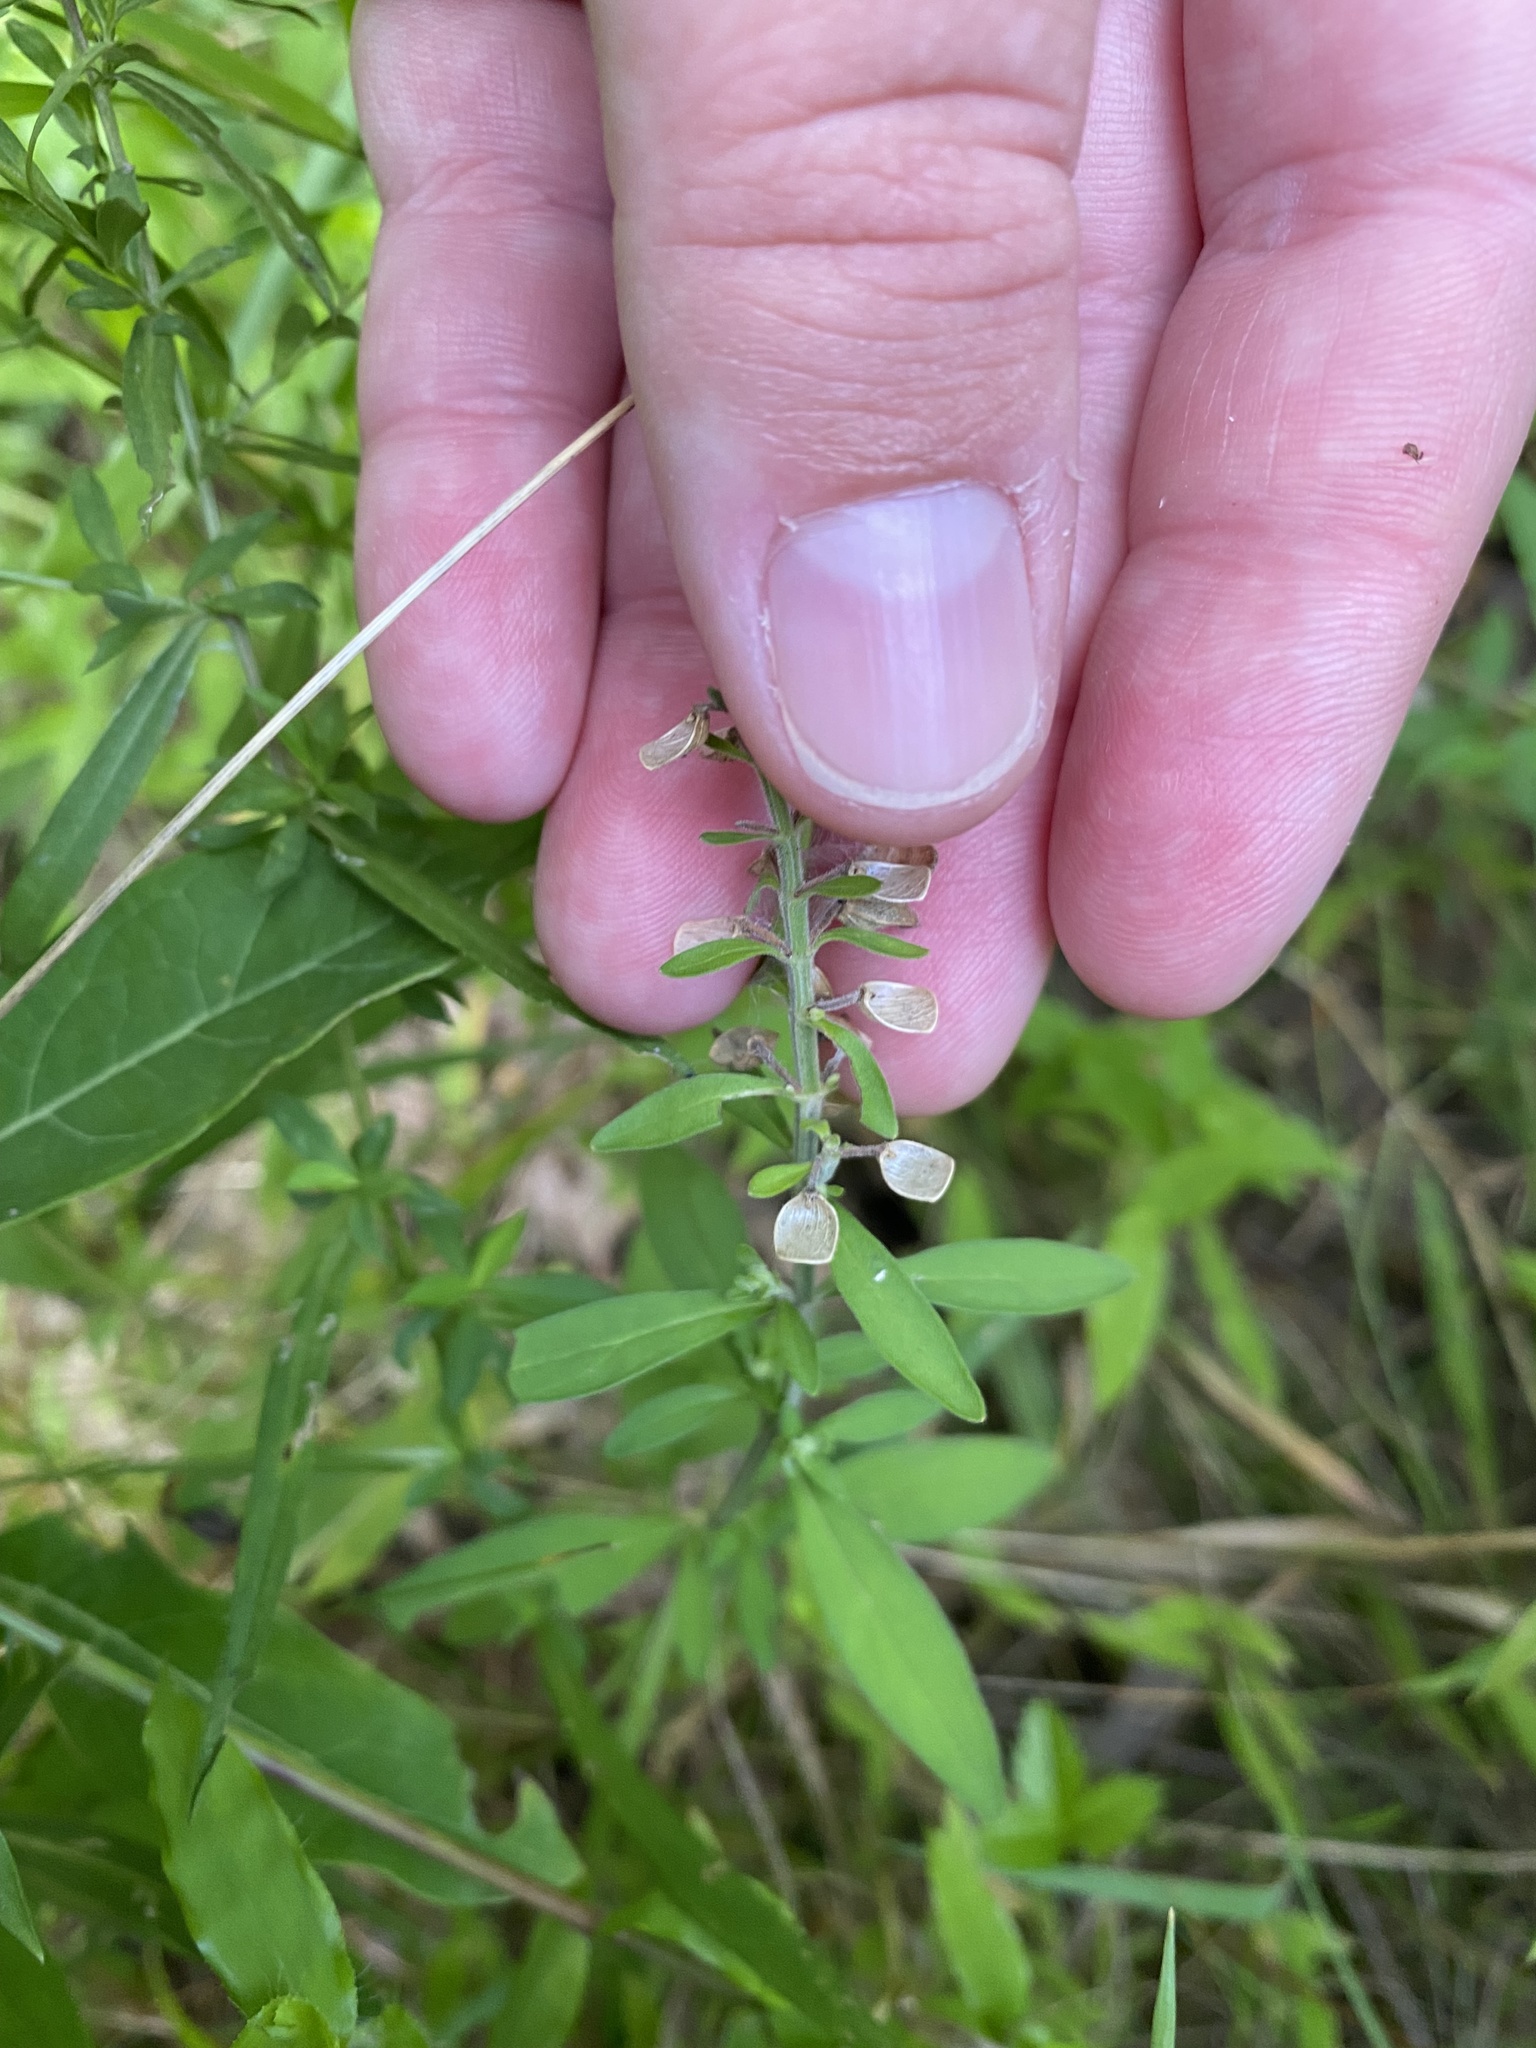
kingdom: Plantae
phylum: Tracheophyta
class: Magnoliopsida
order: Lamiales
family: Lamiaceae
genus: Scutellaria
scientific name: Scutellaria integrifolia
